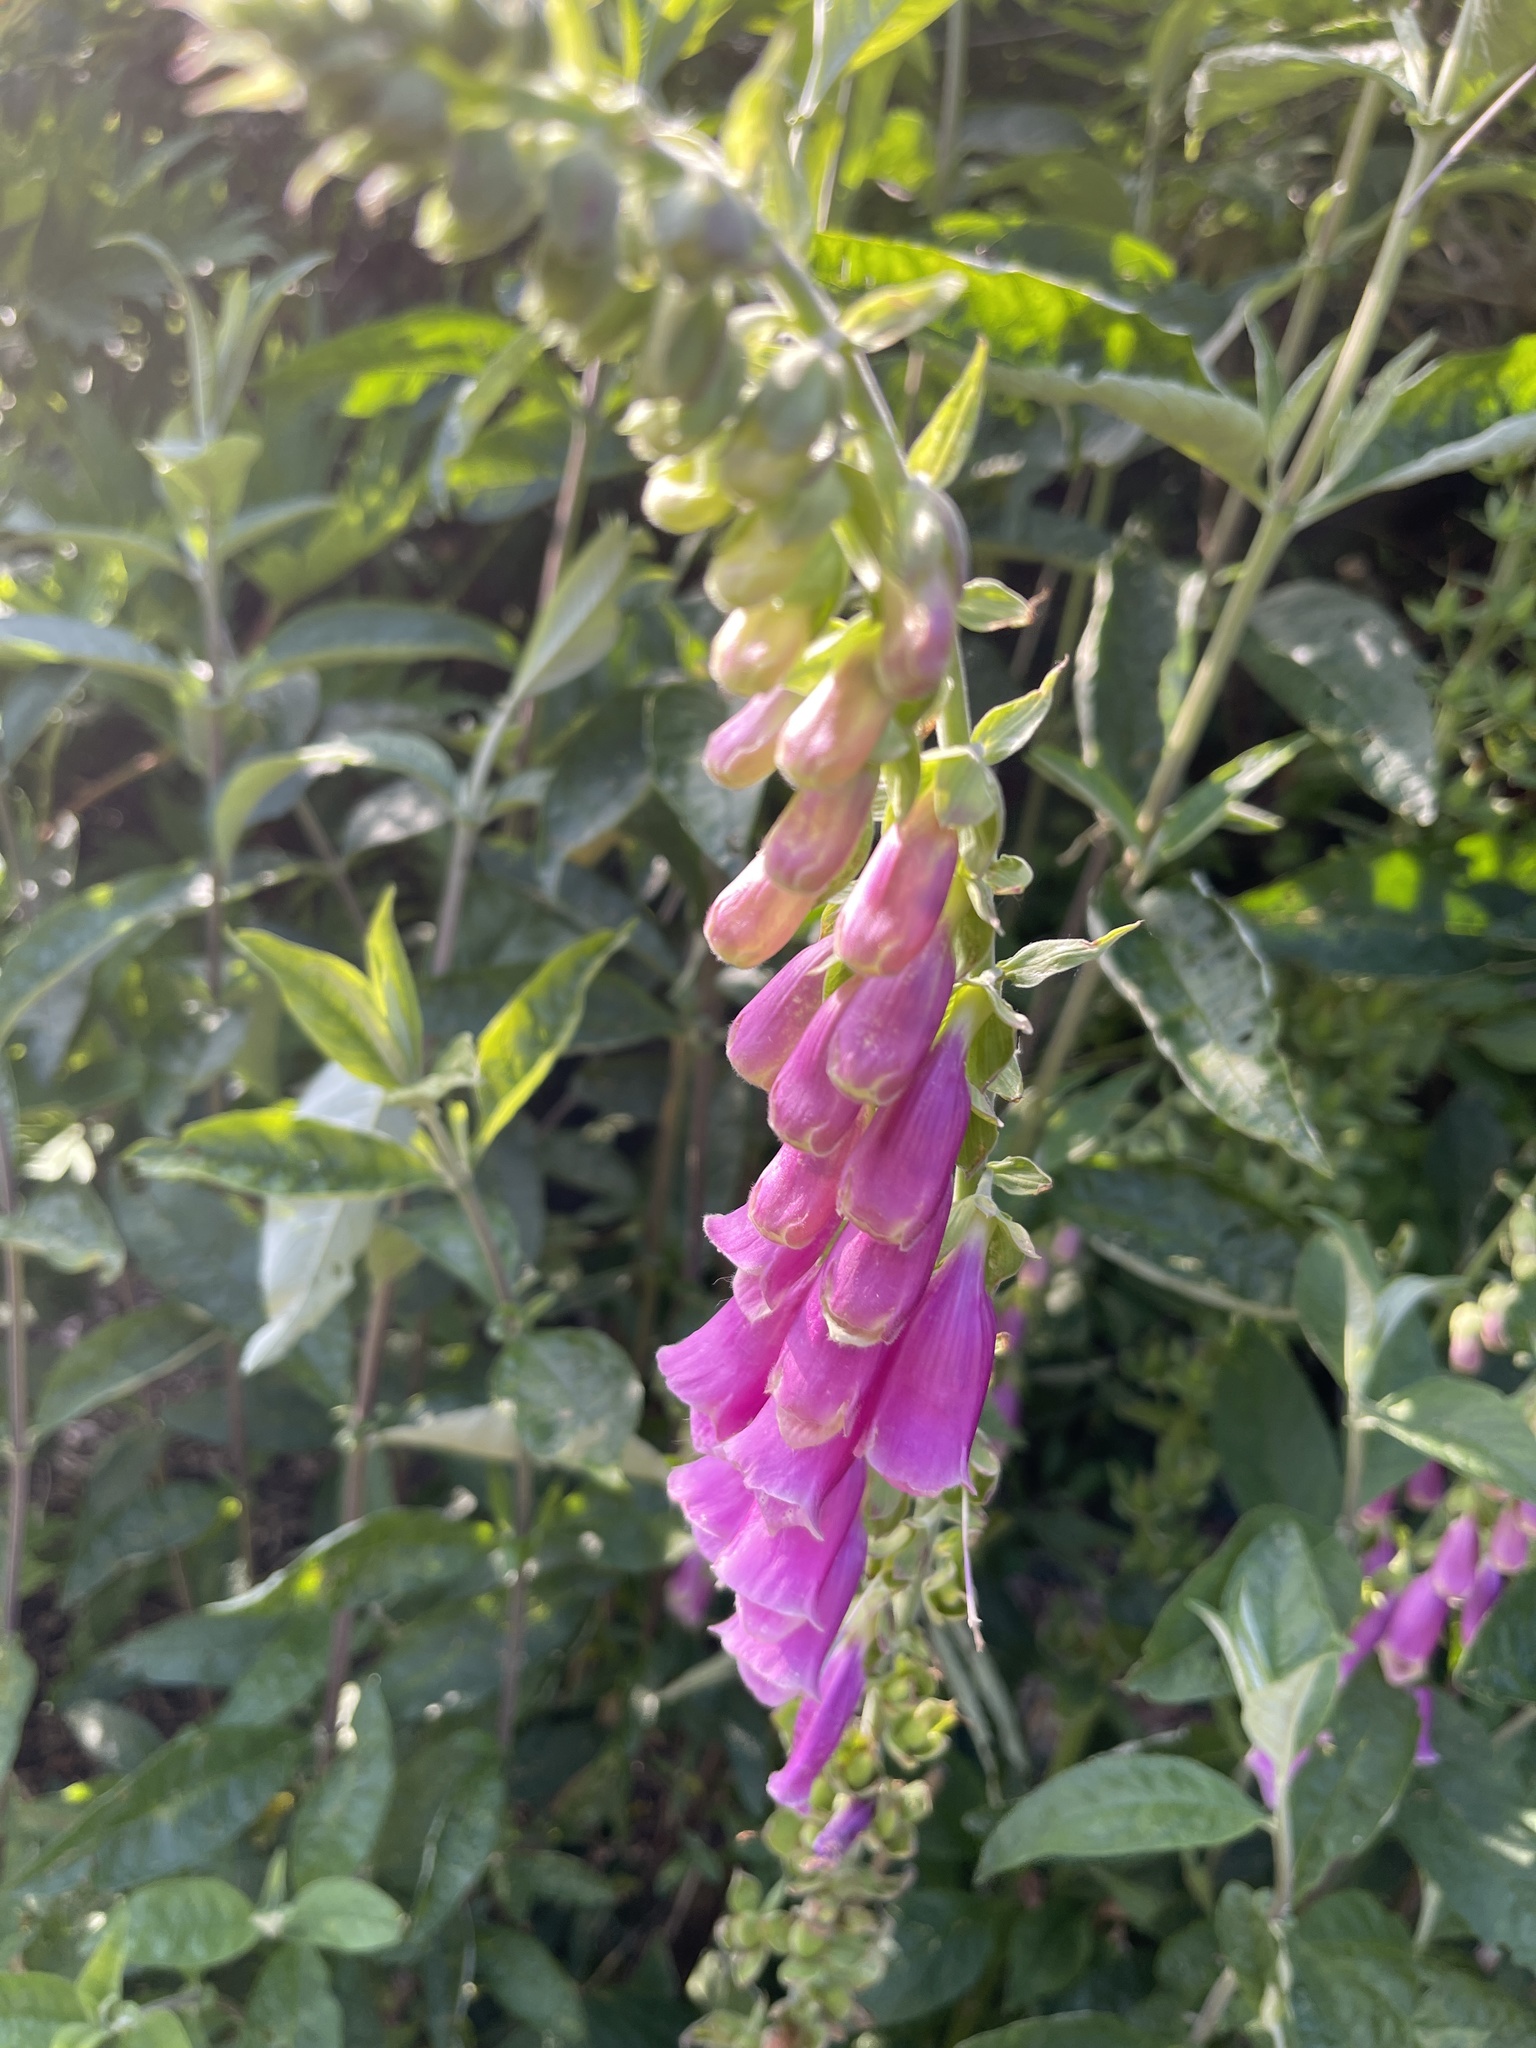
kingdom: Plantae
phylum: Tracheophyta
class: Magnoliopsida
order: Lamiales
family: Plantaginaceae
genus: Digitalis
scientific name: Digitalis purpurea
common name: Foxglove
